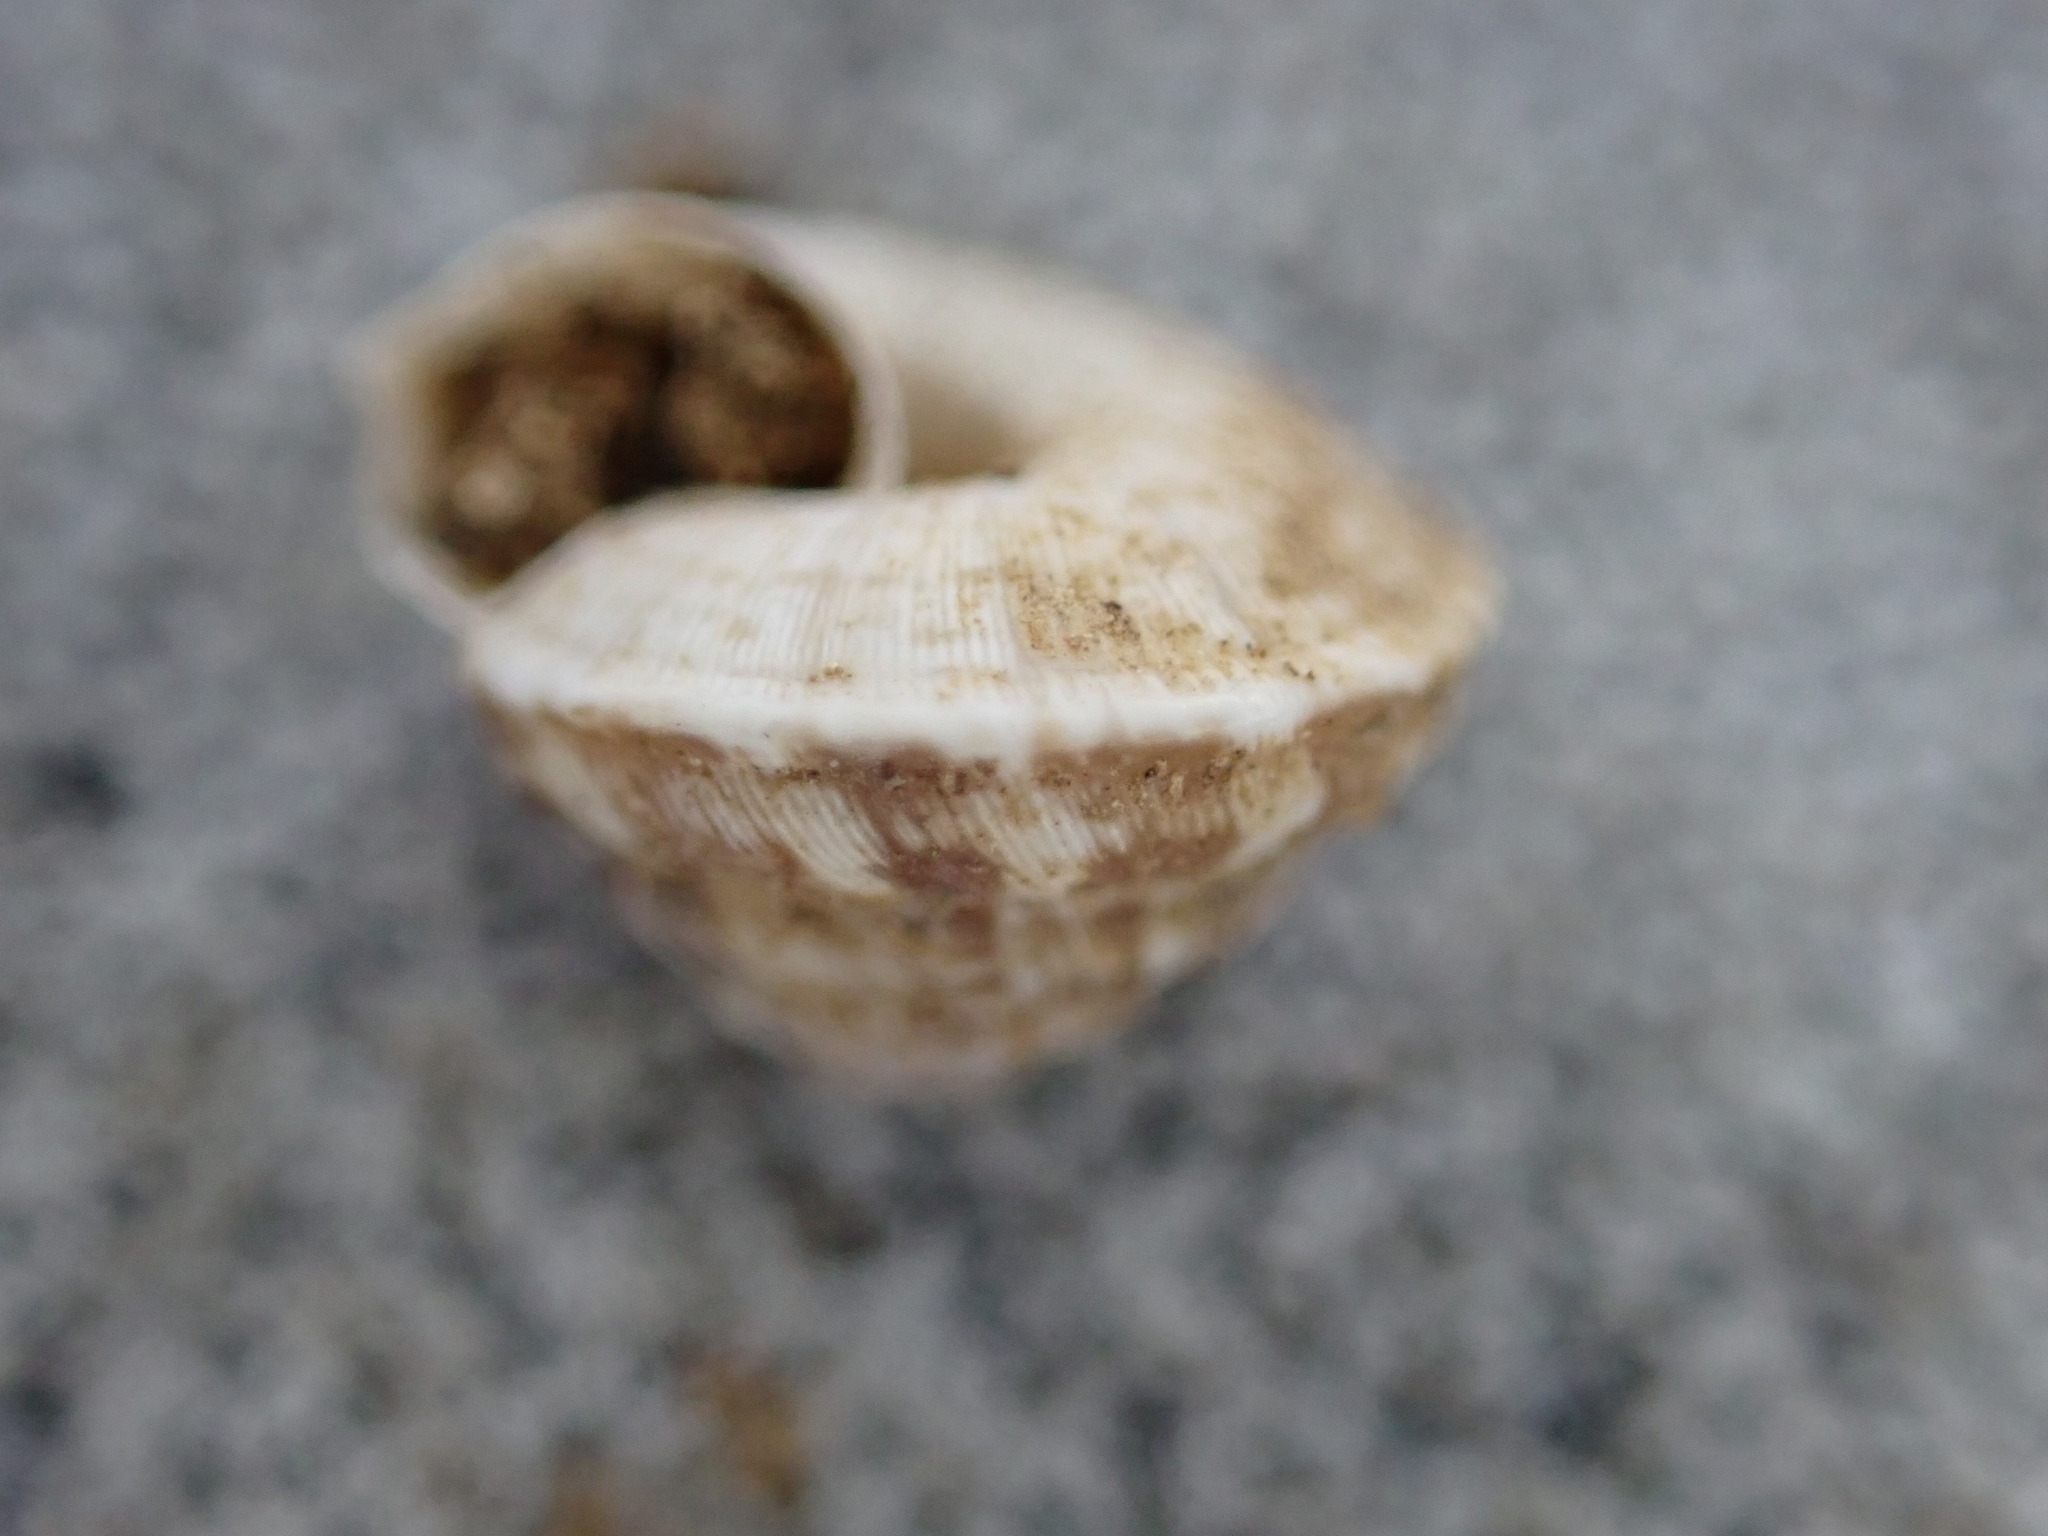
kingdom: Animalia
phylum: Mollusca
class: Gastropoda
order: Stylommatophora
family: Geomitridae
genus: Trochoidea
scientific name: Trochoidea trochoides
